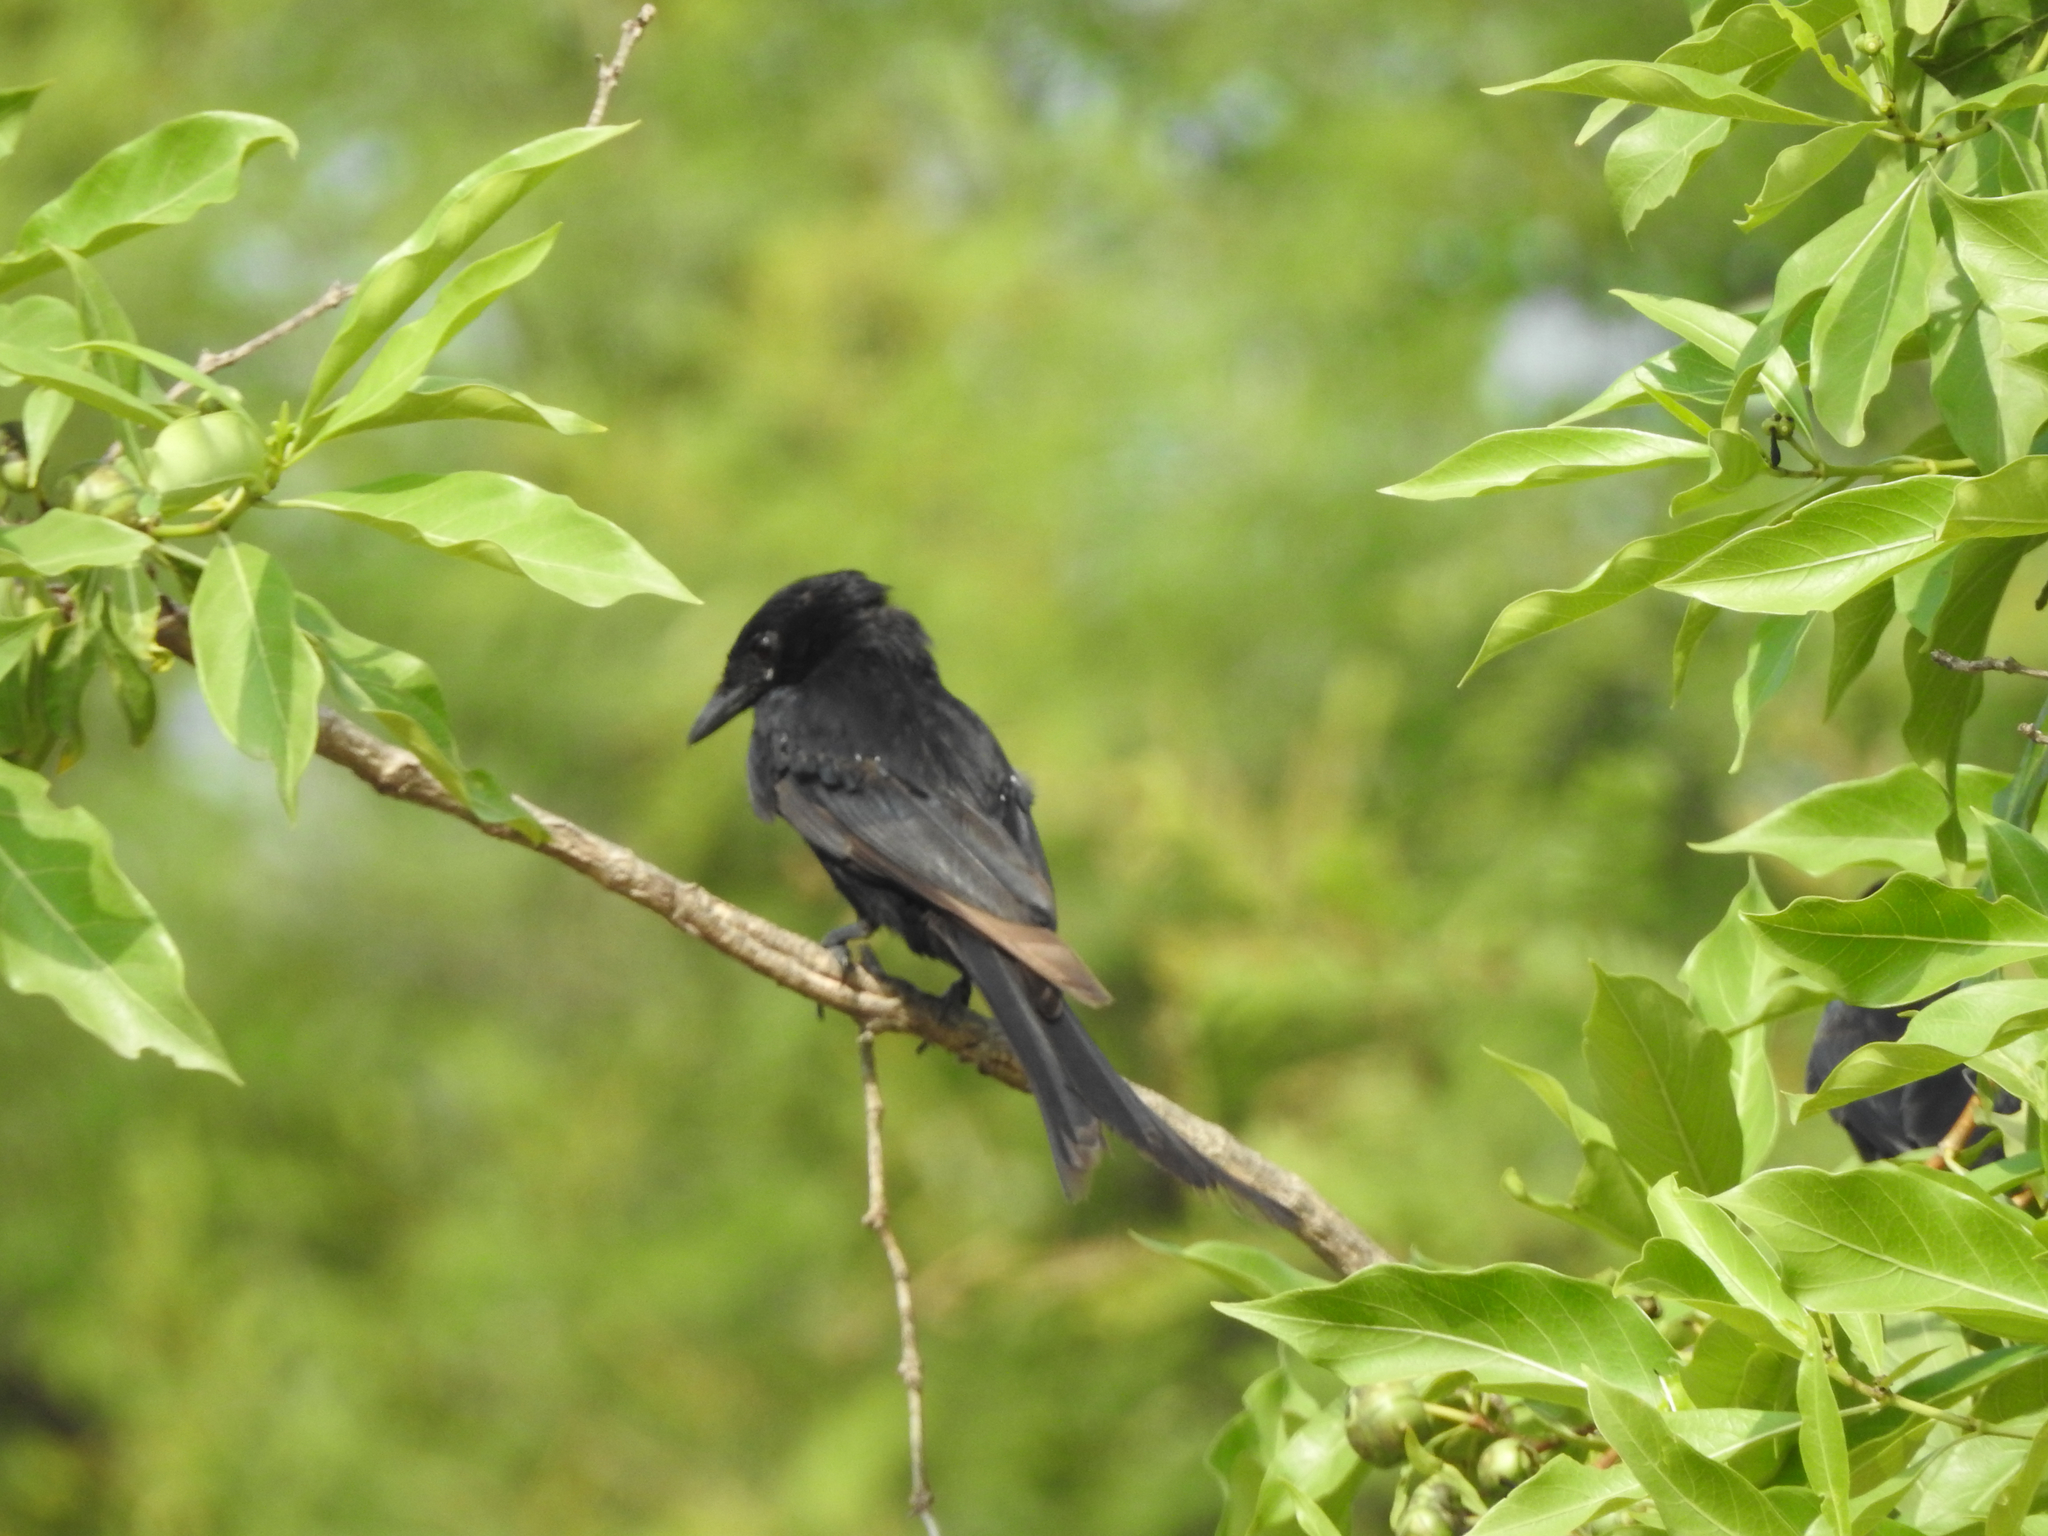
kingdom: Animalia
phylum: Chordata
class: Aves
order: Passeriformes
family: Dicruridae
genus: Dicrurus
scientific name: Dicrurus macrocercus
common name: Black drongo
